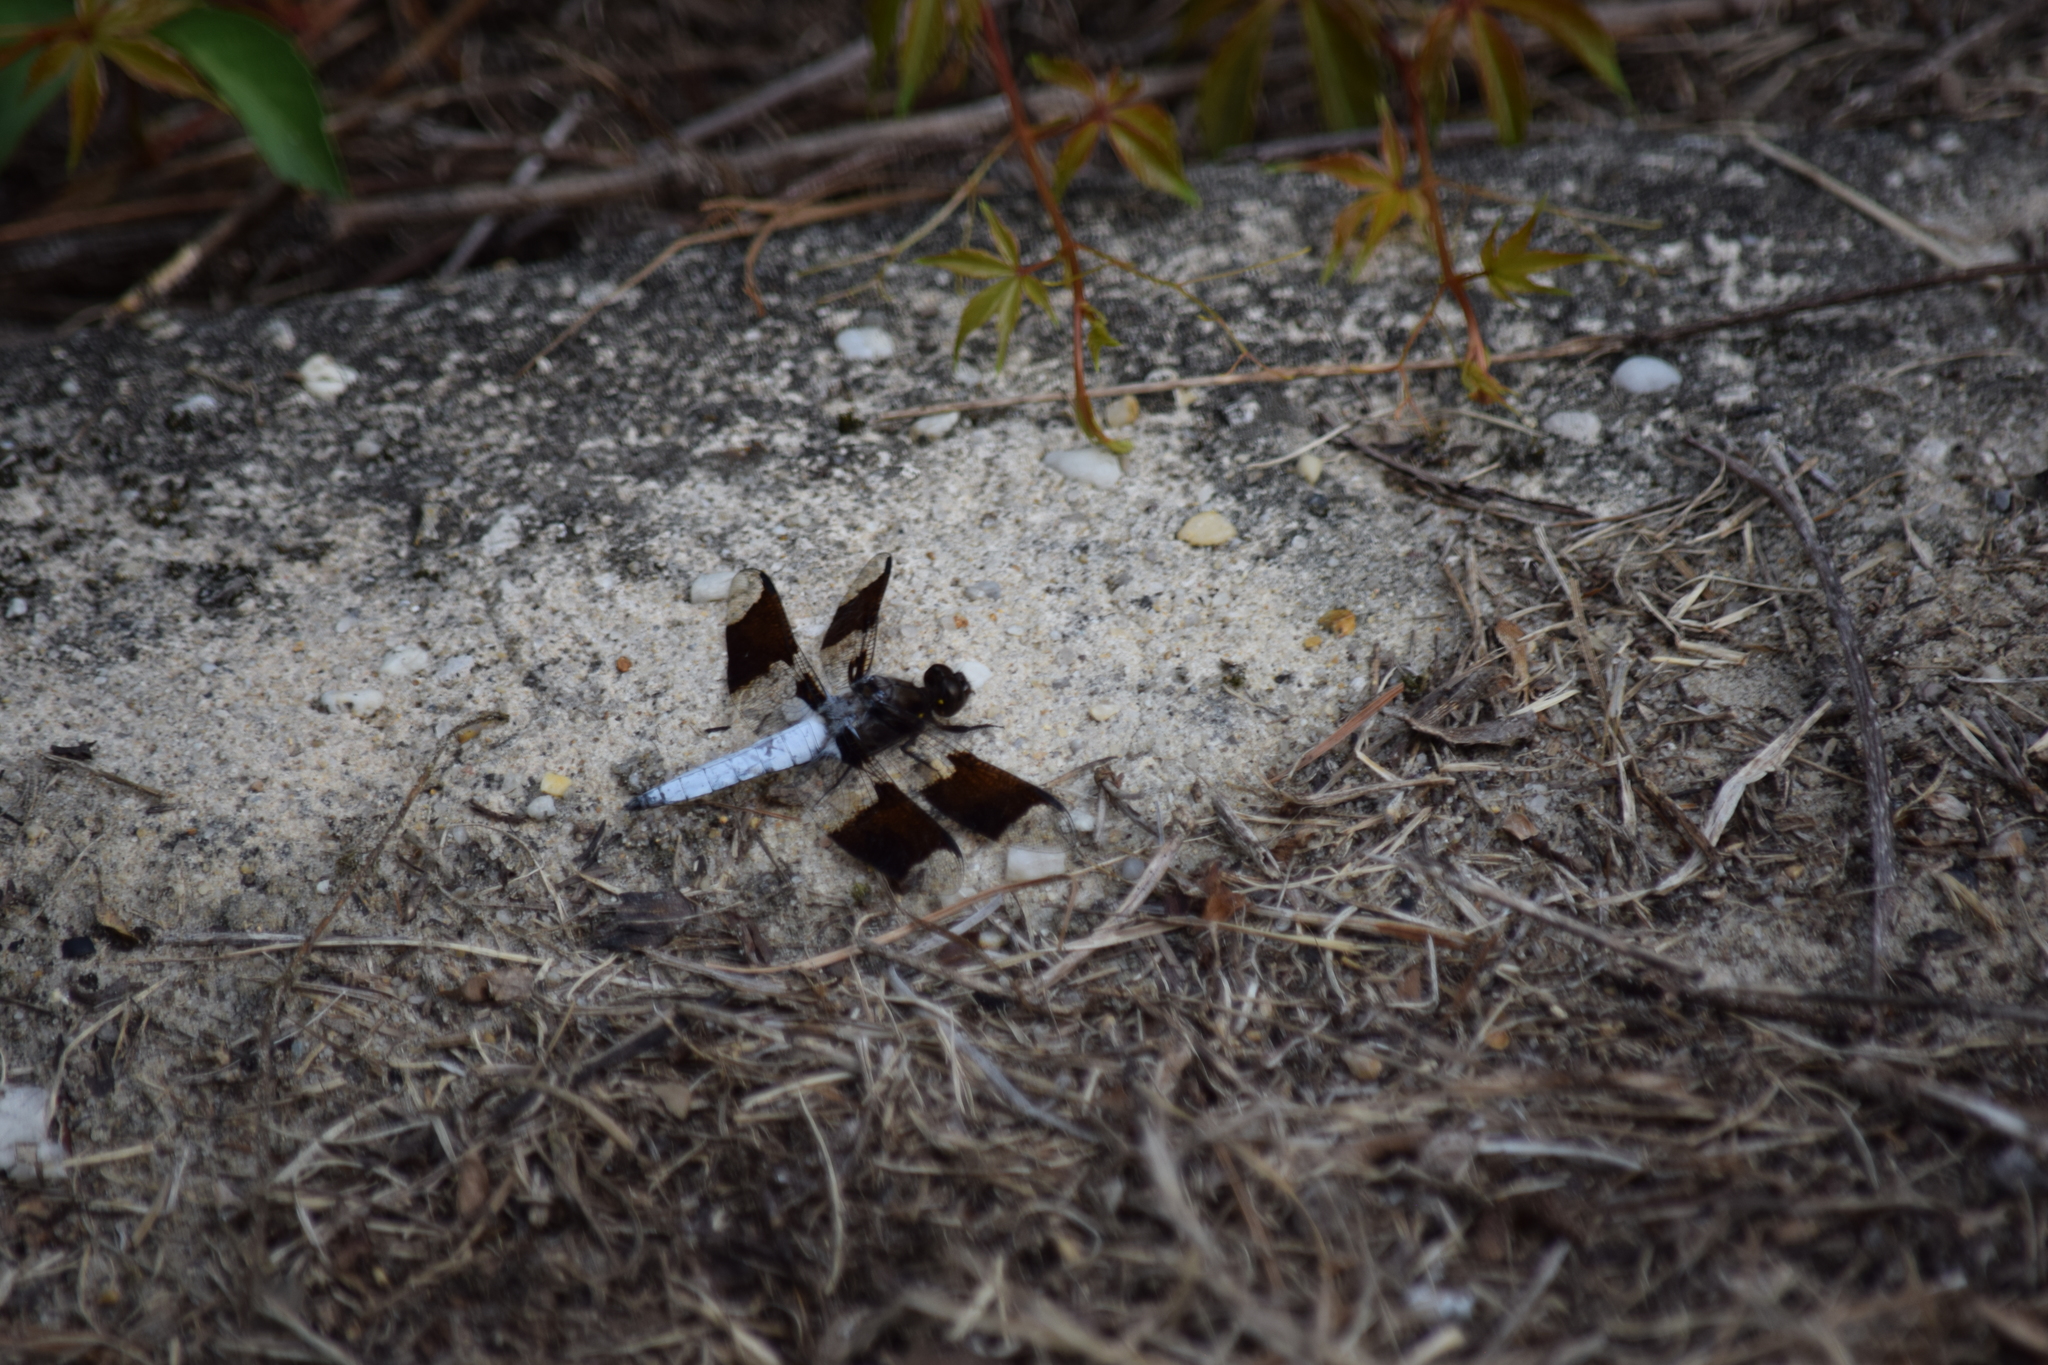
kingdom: Animalia
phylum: Arthropoda
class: Insecta
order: Odonata
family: Libellulidae
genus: Plathemis
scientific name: Plathemis lydia
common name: Common whitetail
